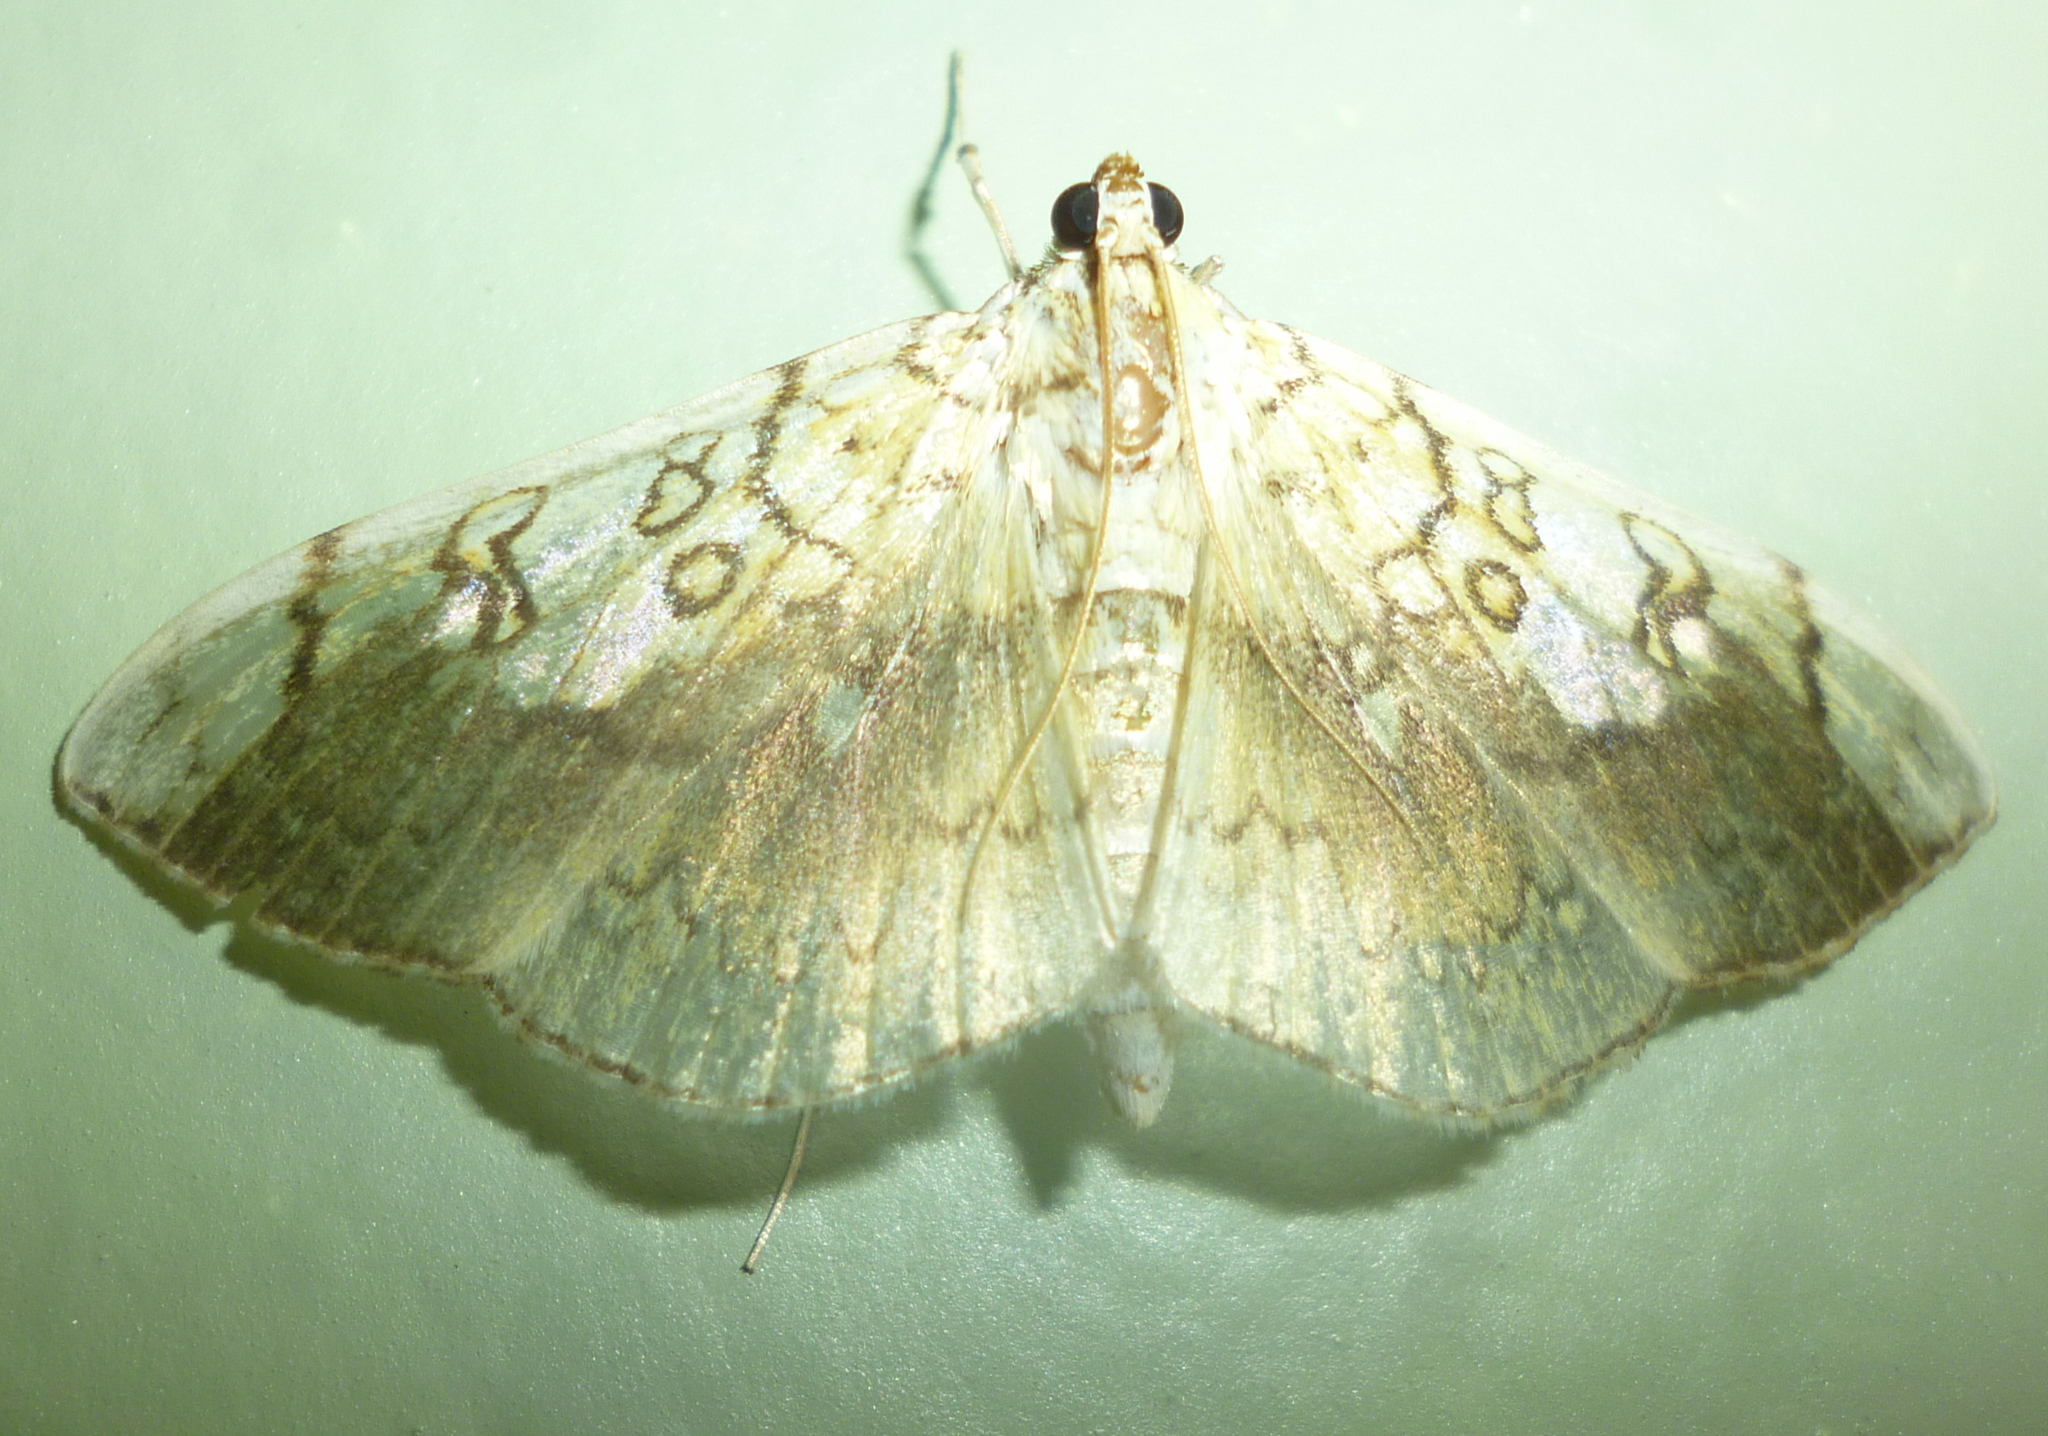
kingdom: Animalia
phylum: Arthropoda
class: Insecta
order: Lepidoptera
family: Crambidae
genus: Pantographa
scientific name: Pantographa limata
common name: Basswood leafroller moth
